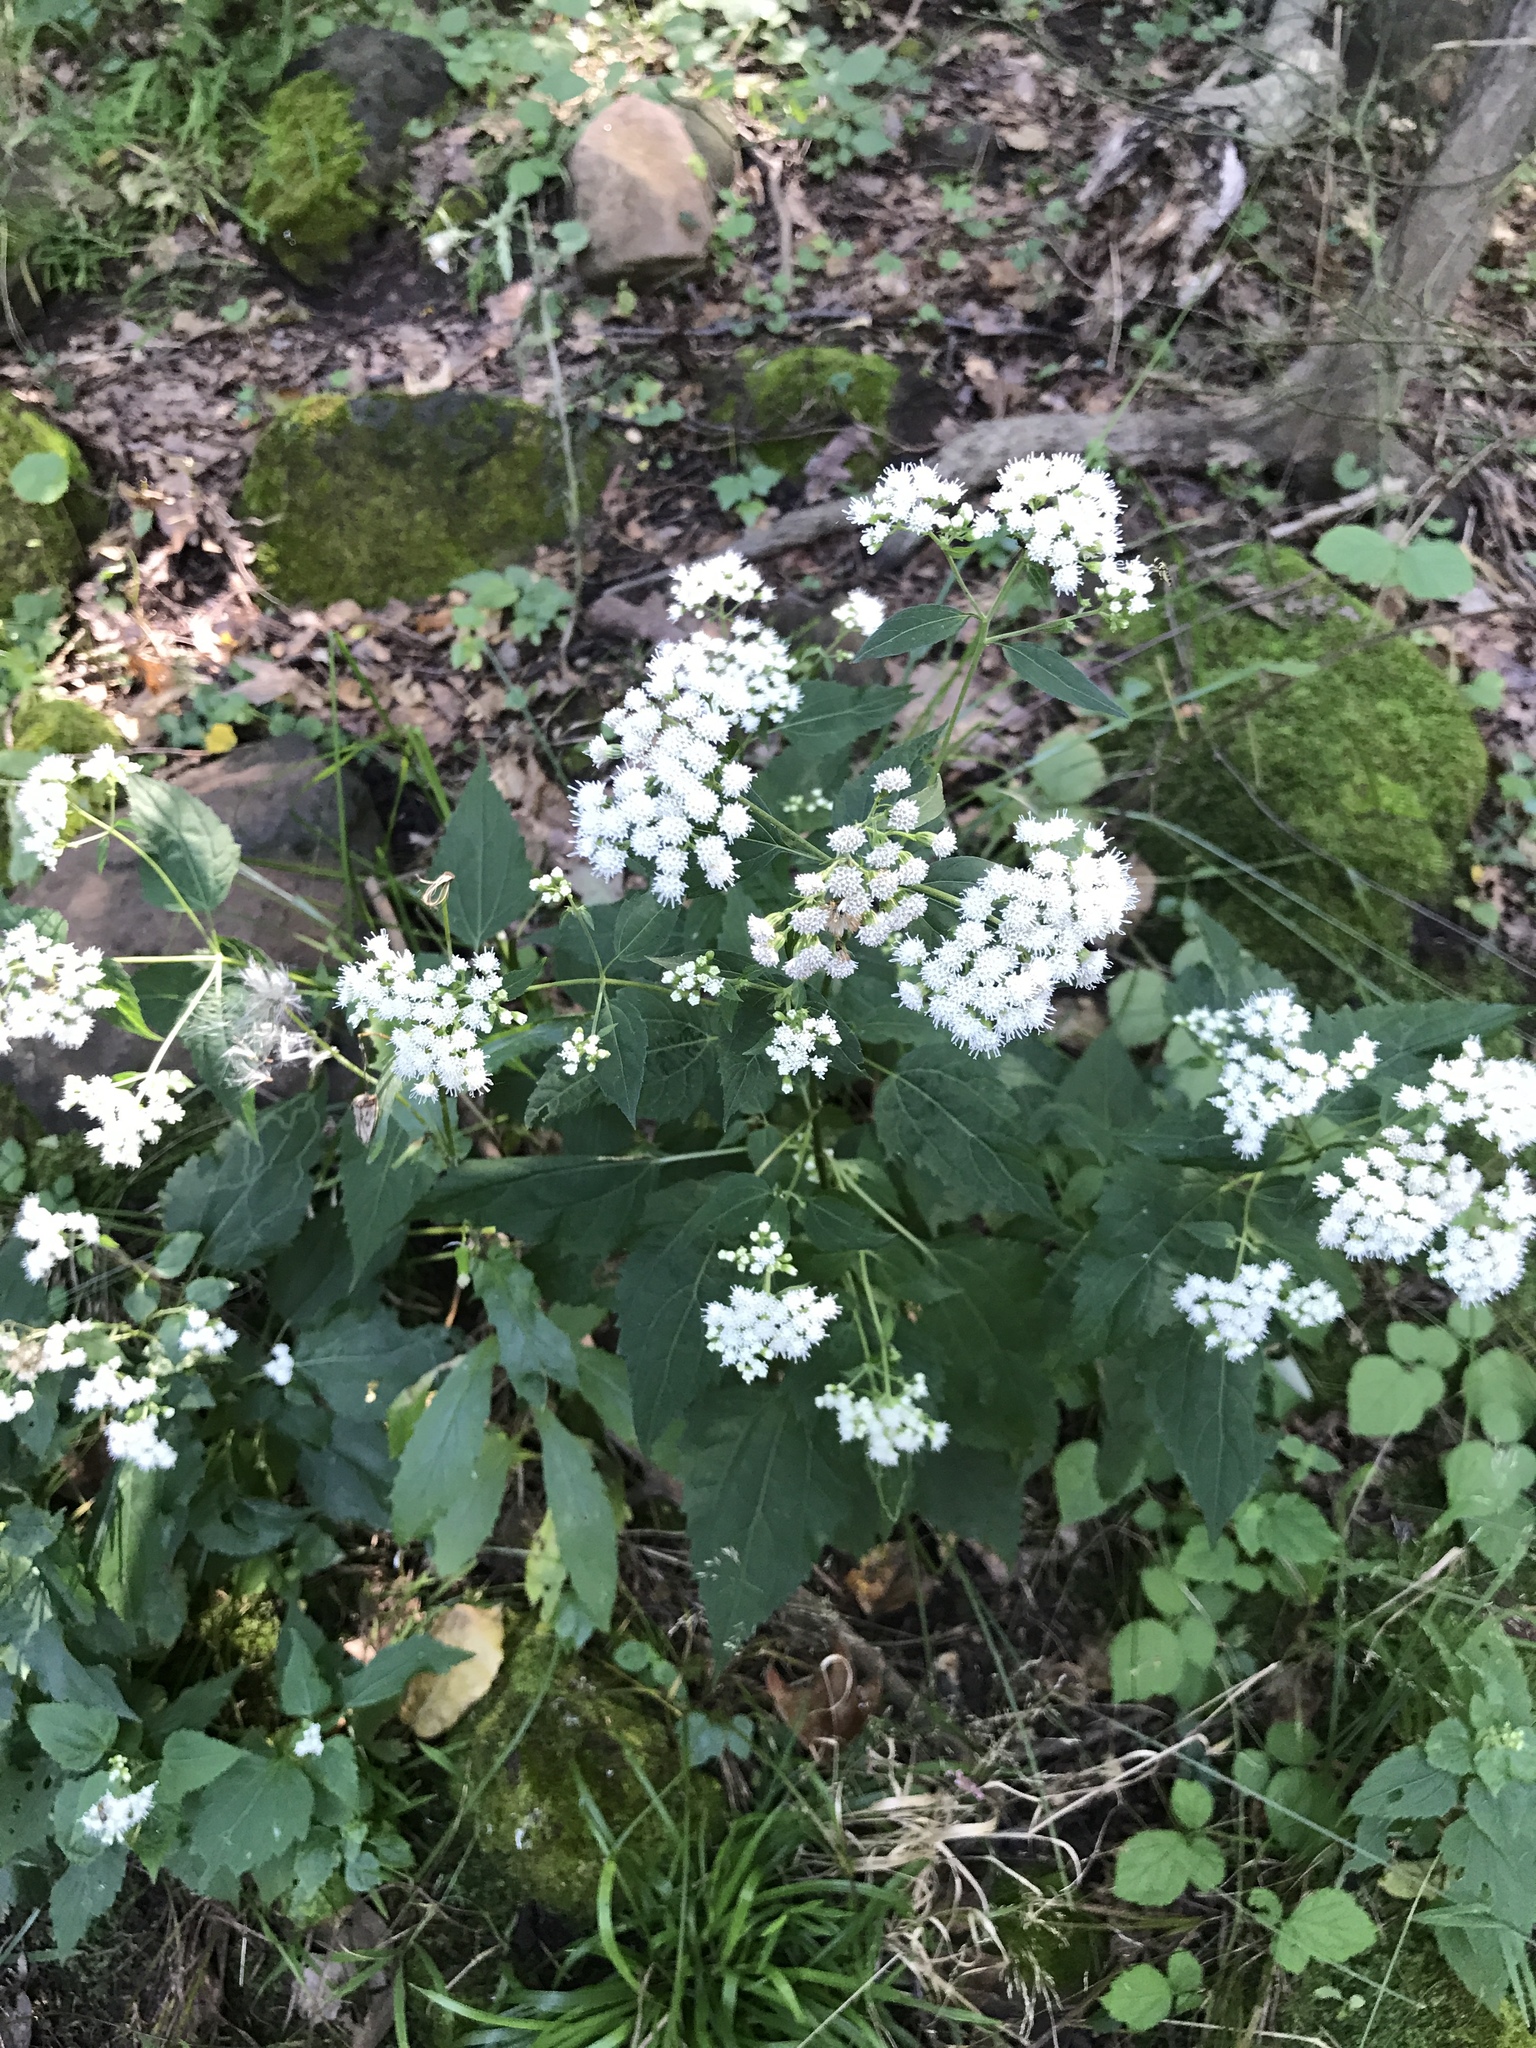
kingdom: Plantae
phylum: Tracheophyta
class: Magnoliopsida
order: Asterales
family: Asteraceae
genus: Ageratina
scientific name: Ageratina altissima
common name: White snakeroot
